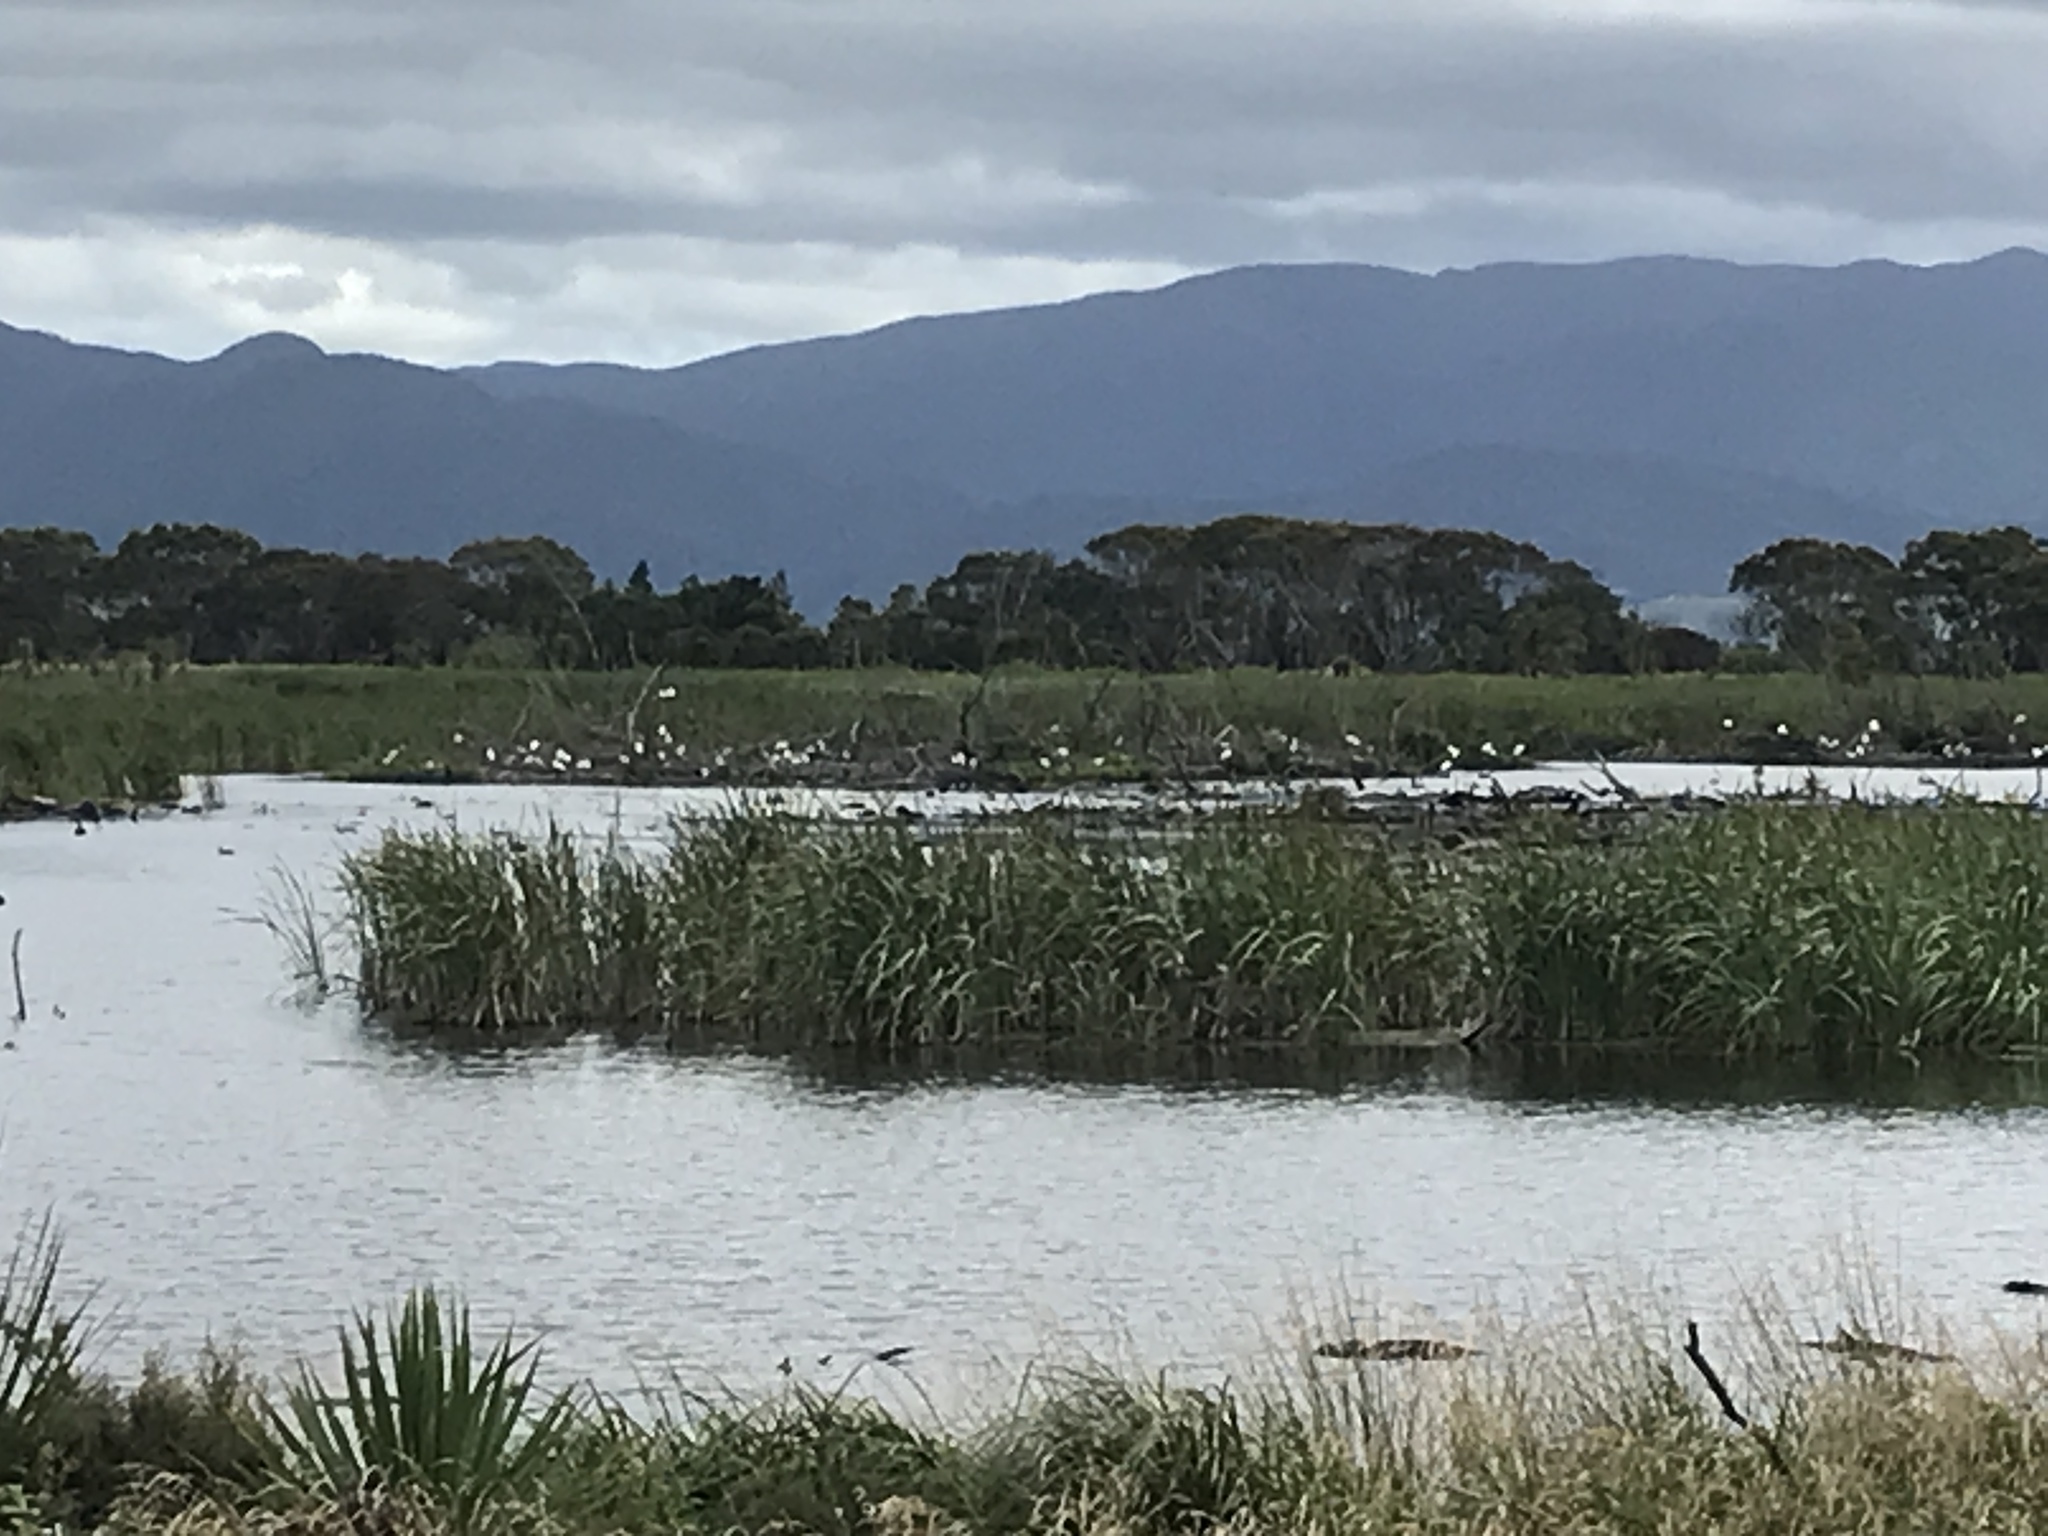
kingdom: Animalia
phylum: Chordata
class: Aves
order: Pelecaniformes
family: Threskiornithidae
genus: Platalea
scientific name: Platalea regia
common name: Royal spoonbill
